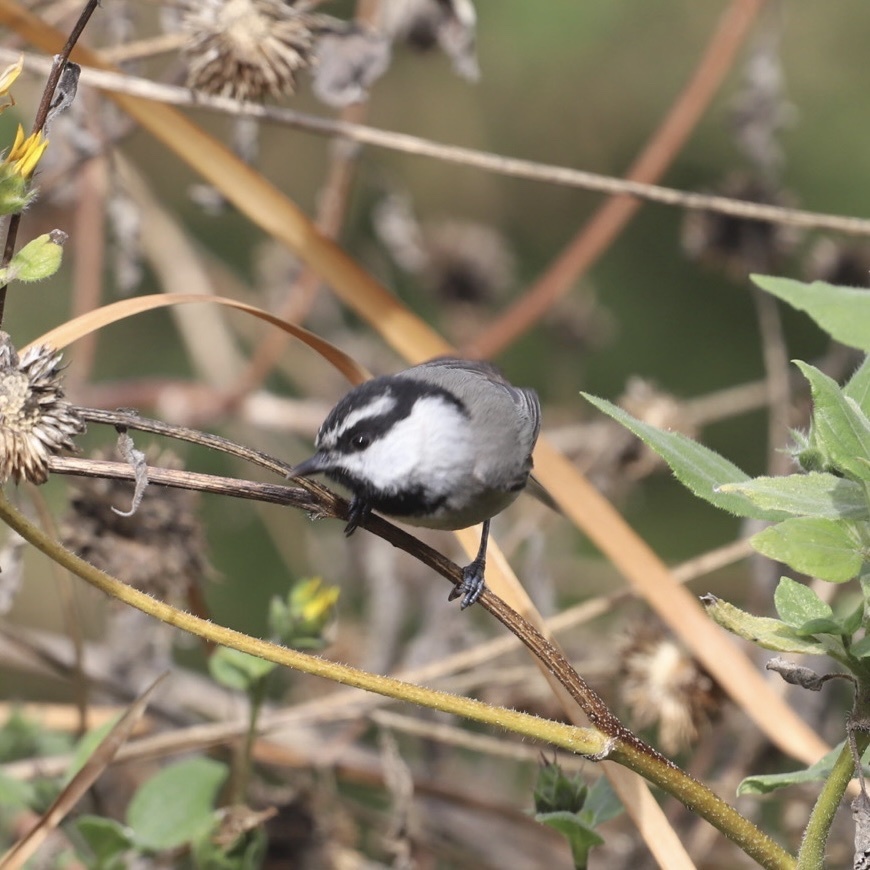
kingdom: Animalia
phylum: Chordata
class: Aves
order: Passeriformes
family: Paridae
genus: Poecile
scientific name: Poecile gambeli
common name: Mountain chickadee
